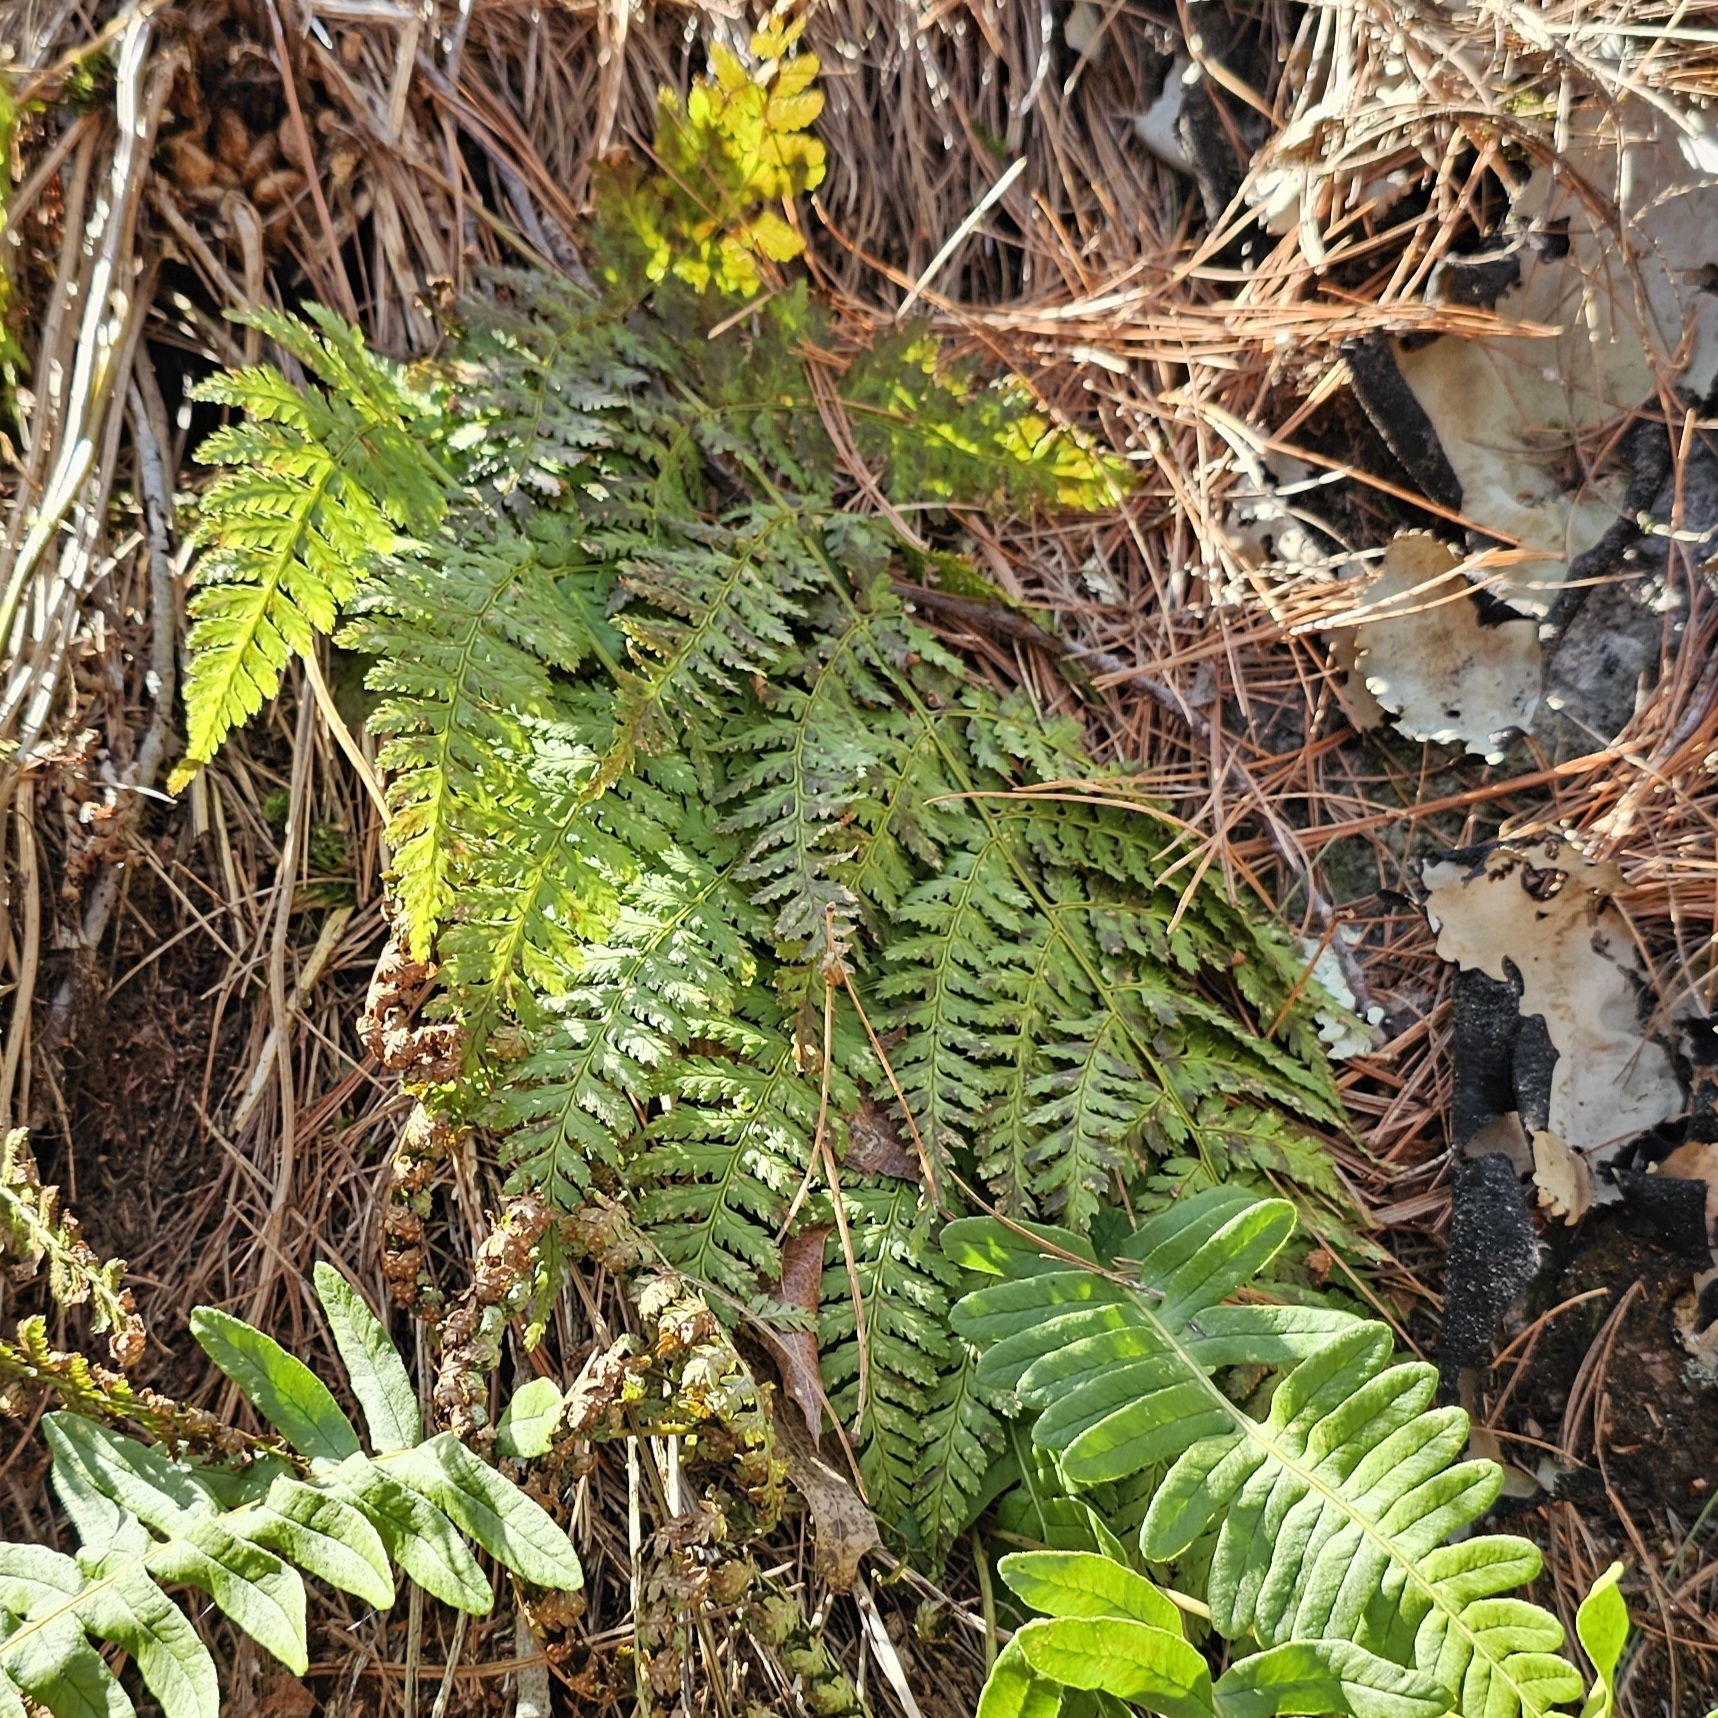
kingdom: Plantae
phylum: Tracheophyta
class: Polypodiopsida
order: Polypodiales
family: Dryopteridaceae
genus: Dryopteris
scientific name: Dryopteris intermedia
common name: Evergreen wood fern
